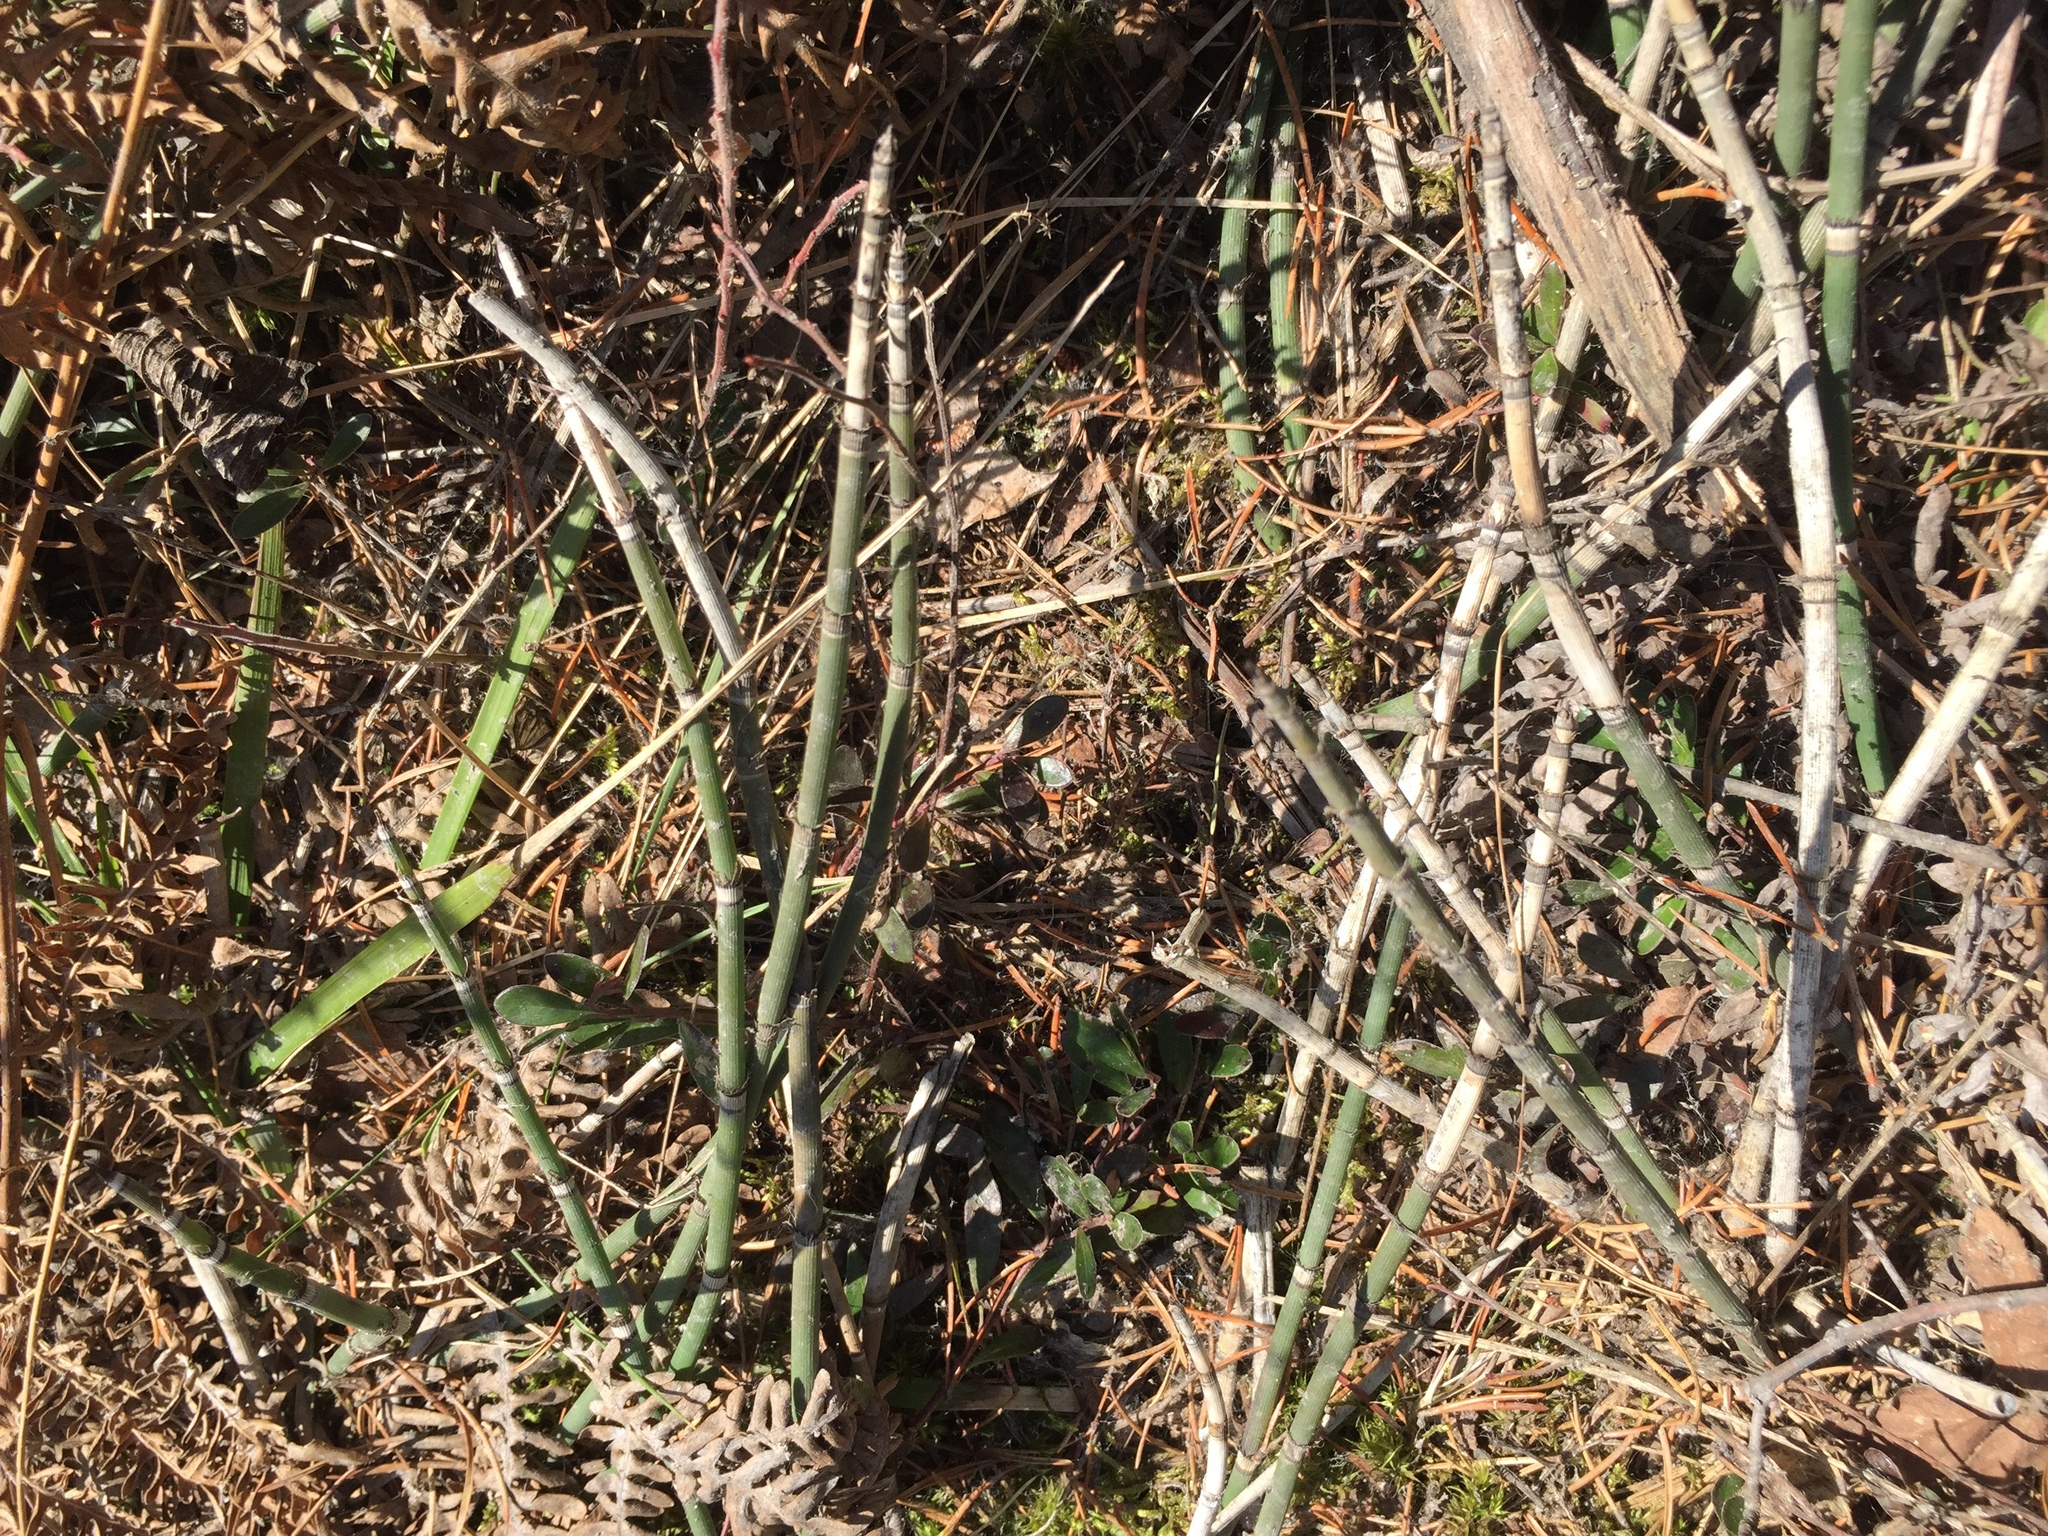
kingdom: Plantae
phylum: Tracheophyta
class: Polypodiopsida
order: Equisetales
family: Equisetaceae
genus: Equisetum
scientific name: Equisetum praealtum
